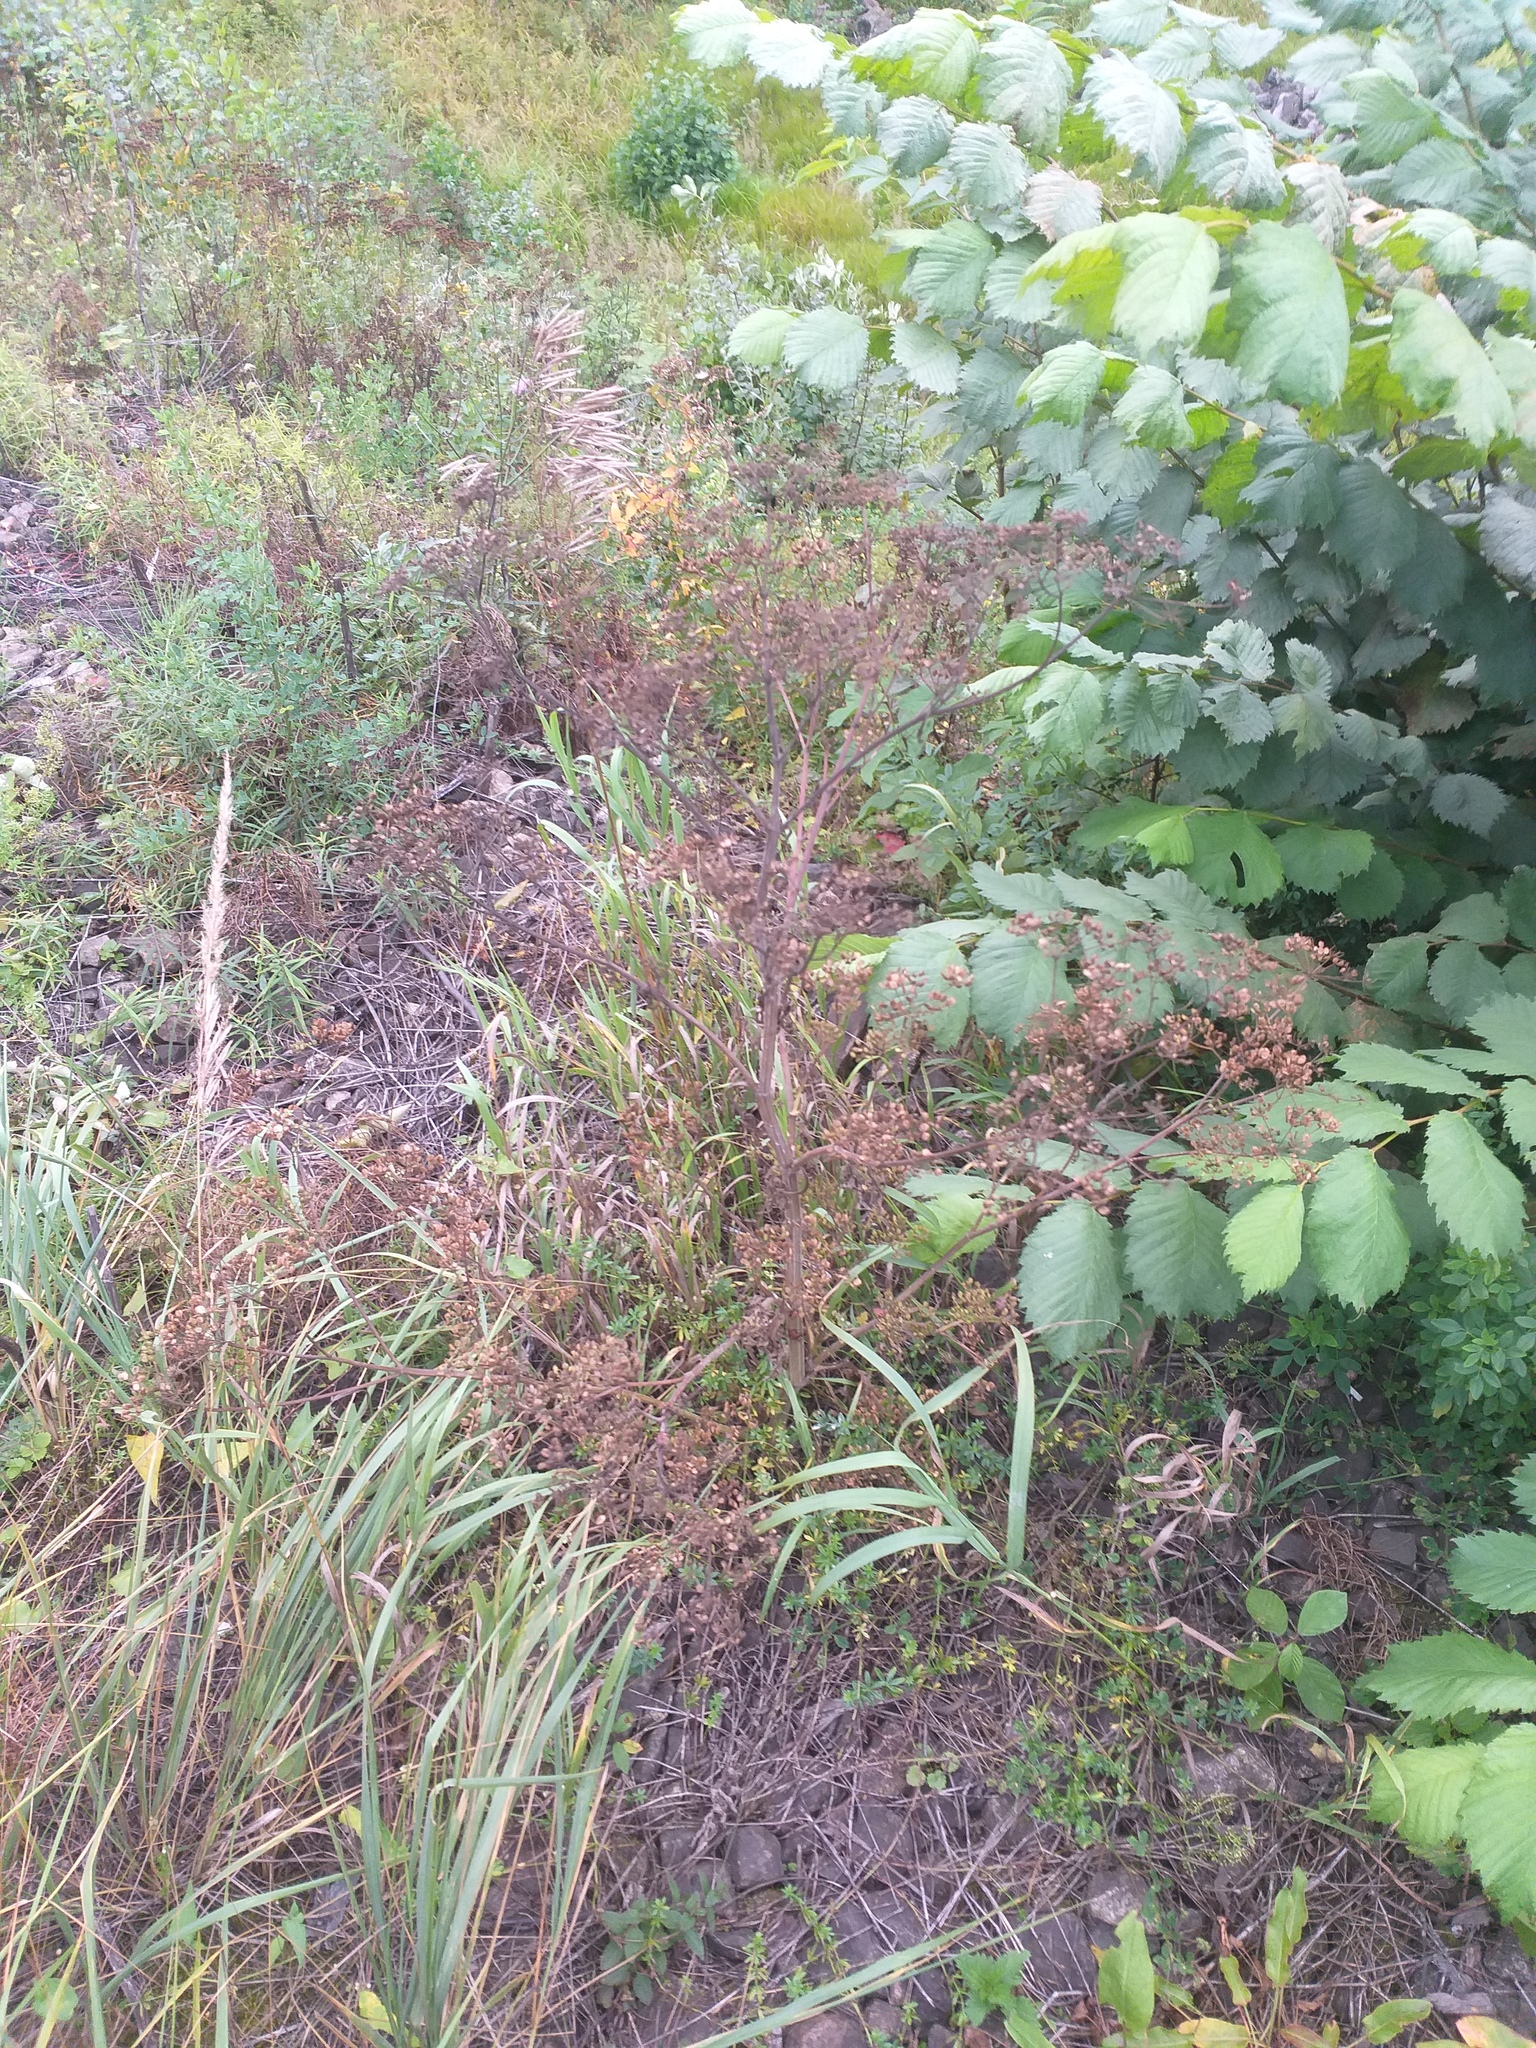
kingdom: Plantae
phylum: Tracheophyta
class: Magnoliopsida
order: Apiales
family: Apiaceae
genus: Pastinaca
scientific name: Pastinaca sativa
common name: Wild parsnip
